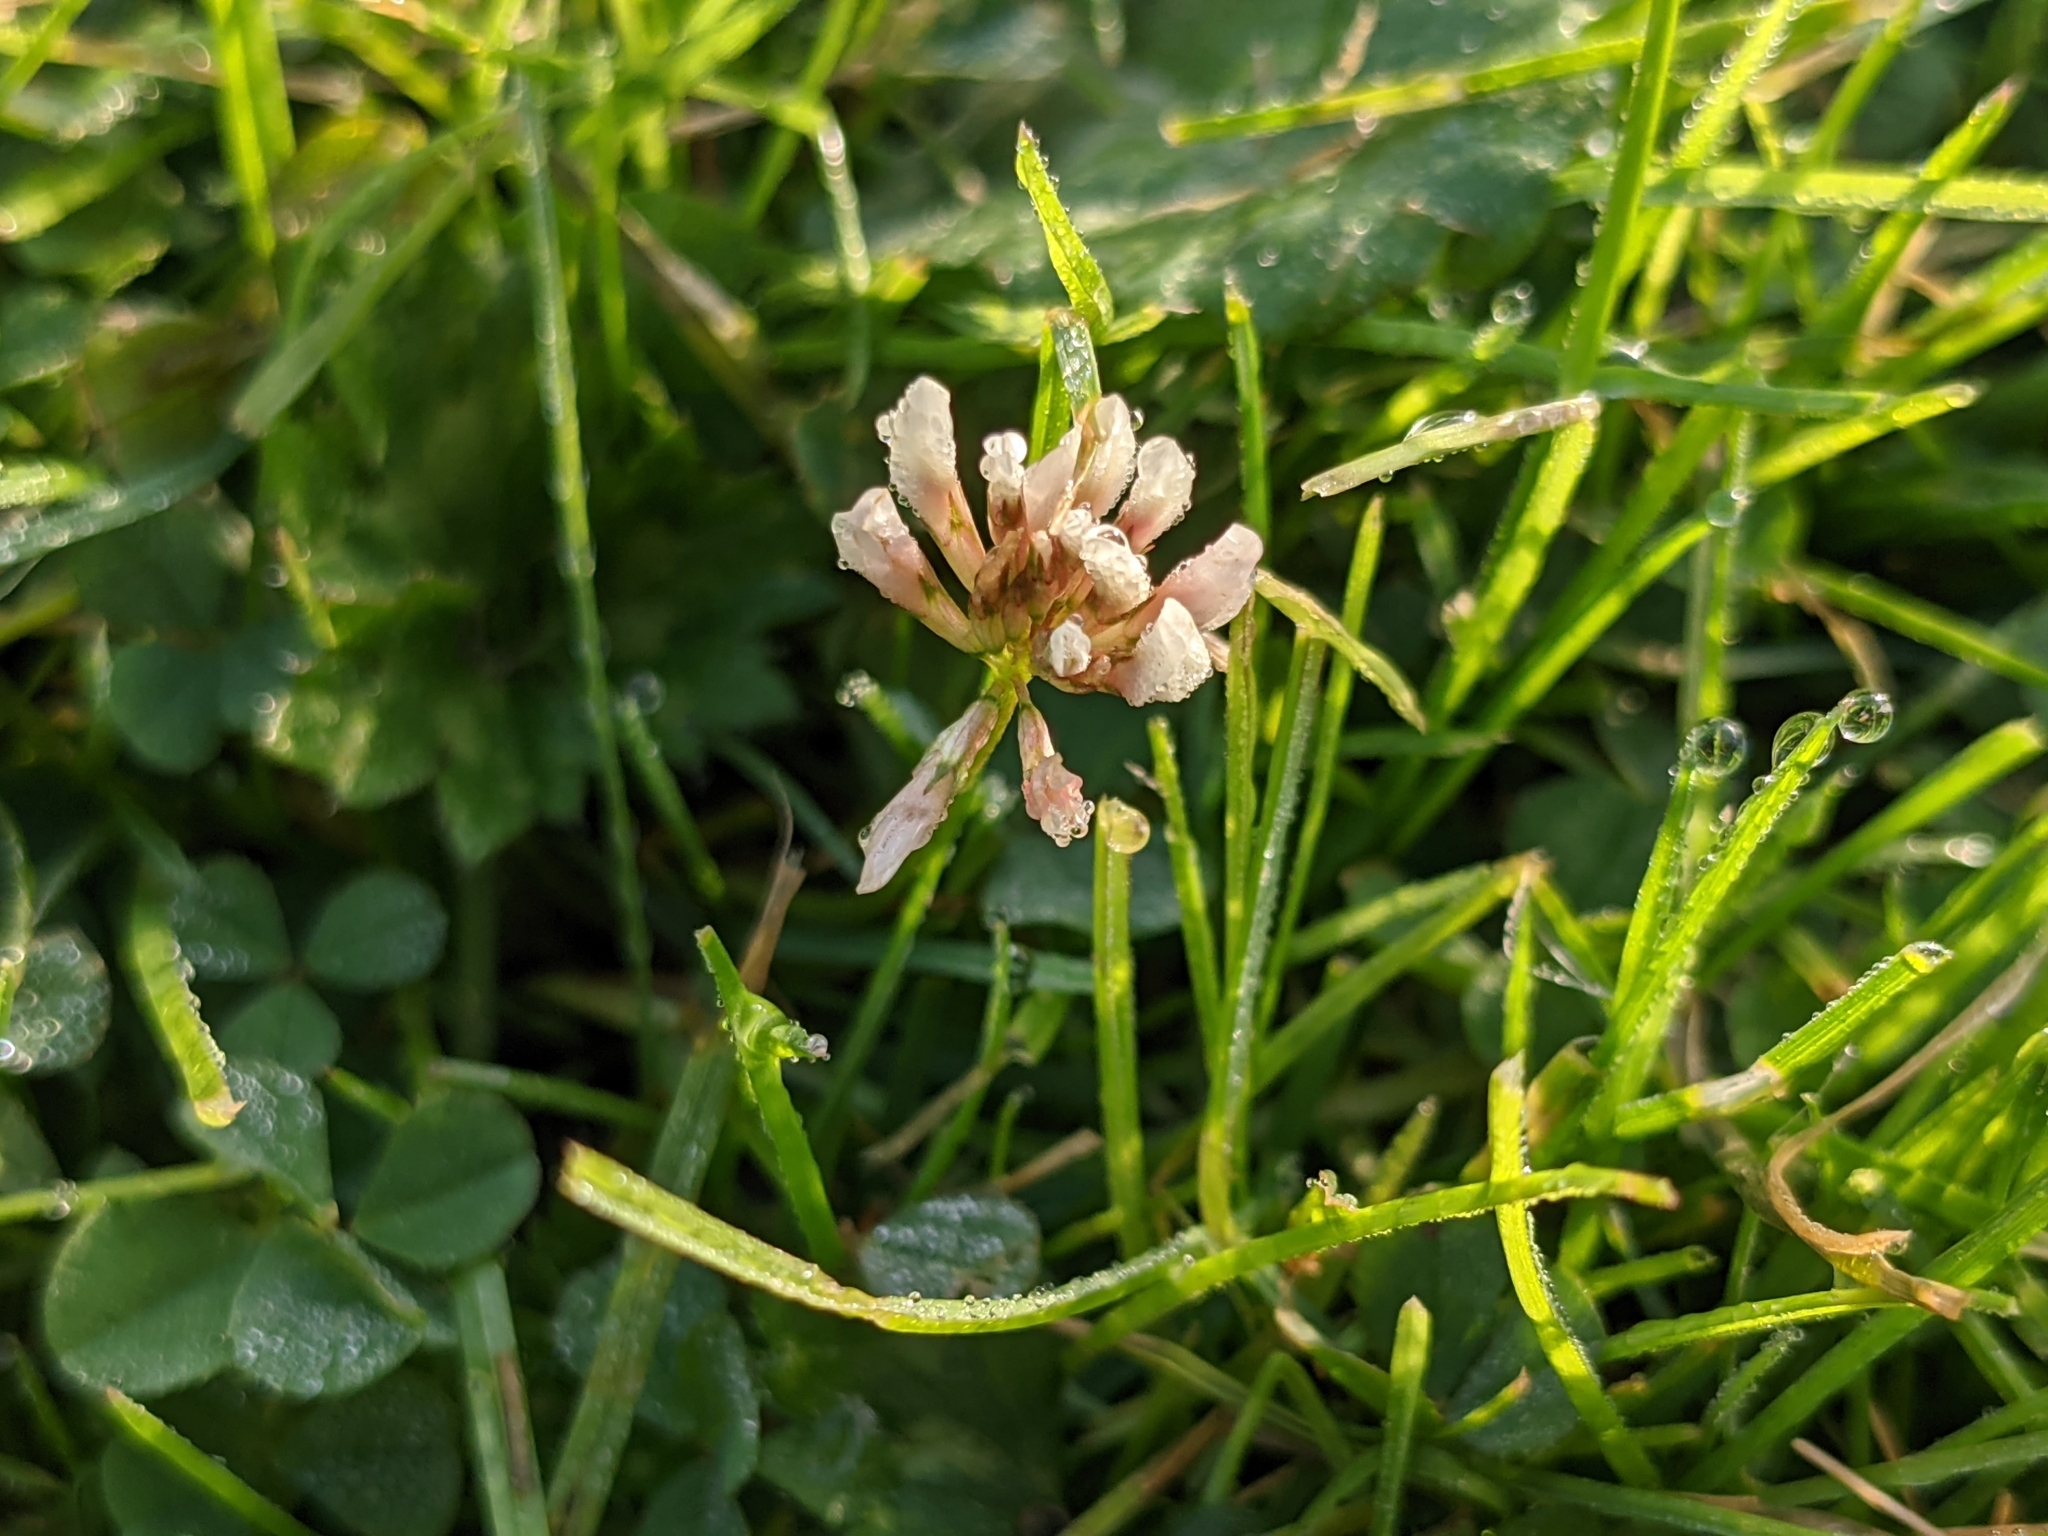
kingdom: Plantae
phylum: Tracheophyta
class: Magnoliopsida
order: Fabales
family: Fabaceae
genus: Trifolium
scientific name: Trifolium repens
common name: White clover
